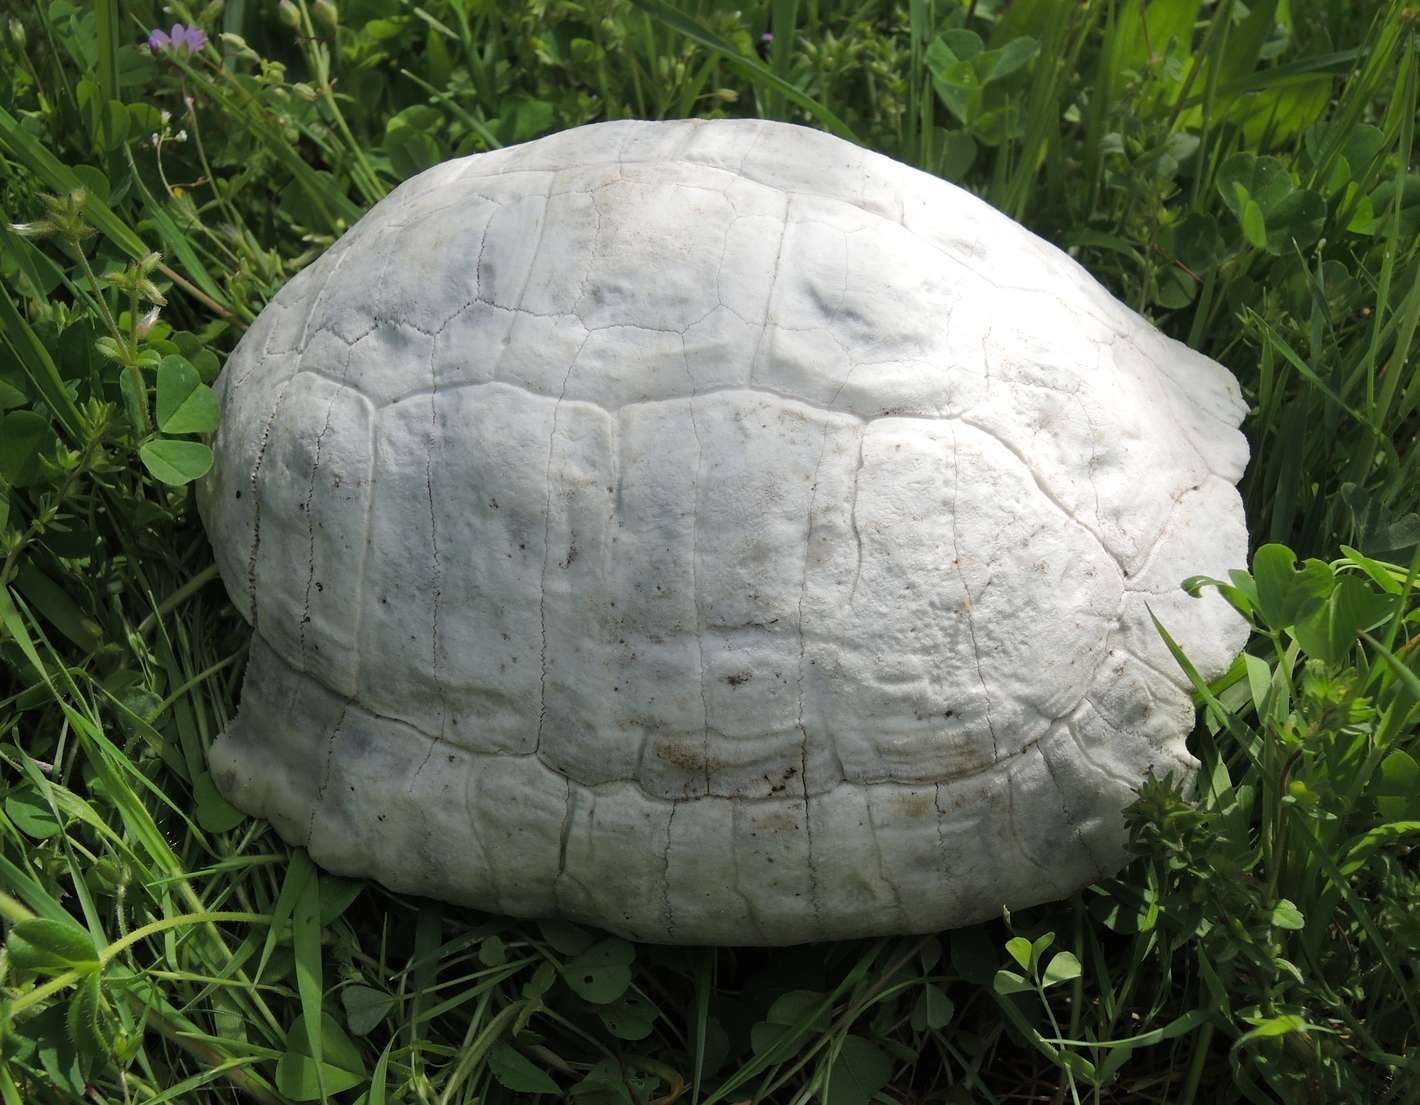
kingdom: Animalia
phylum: Chordata
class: Testudines
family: Testudinidae
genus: Testudo
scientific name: Testudo graeca
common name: Common tortoise
